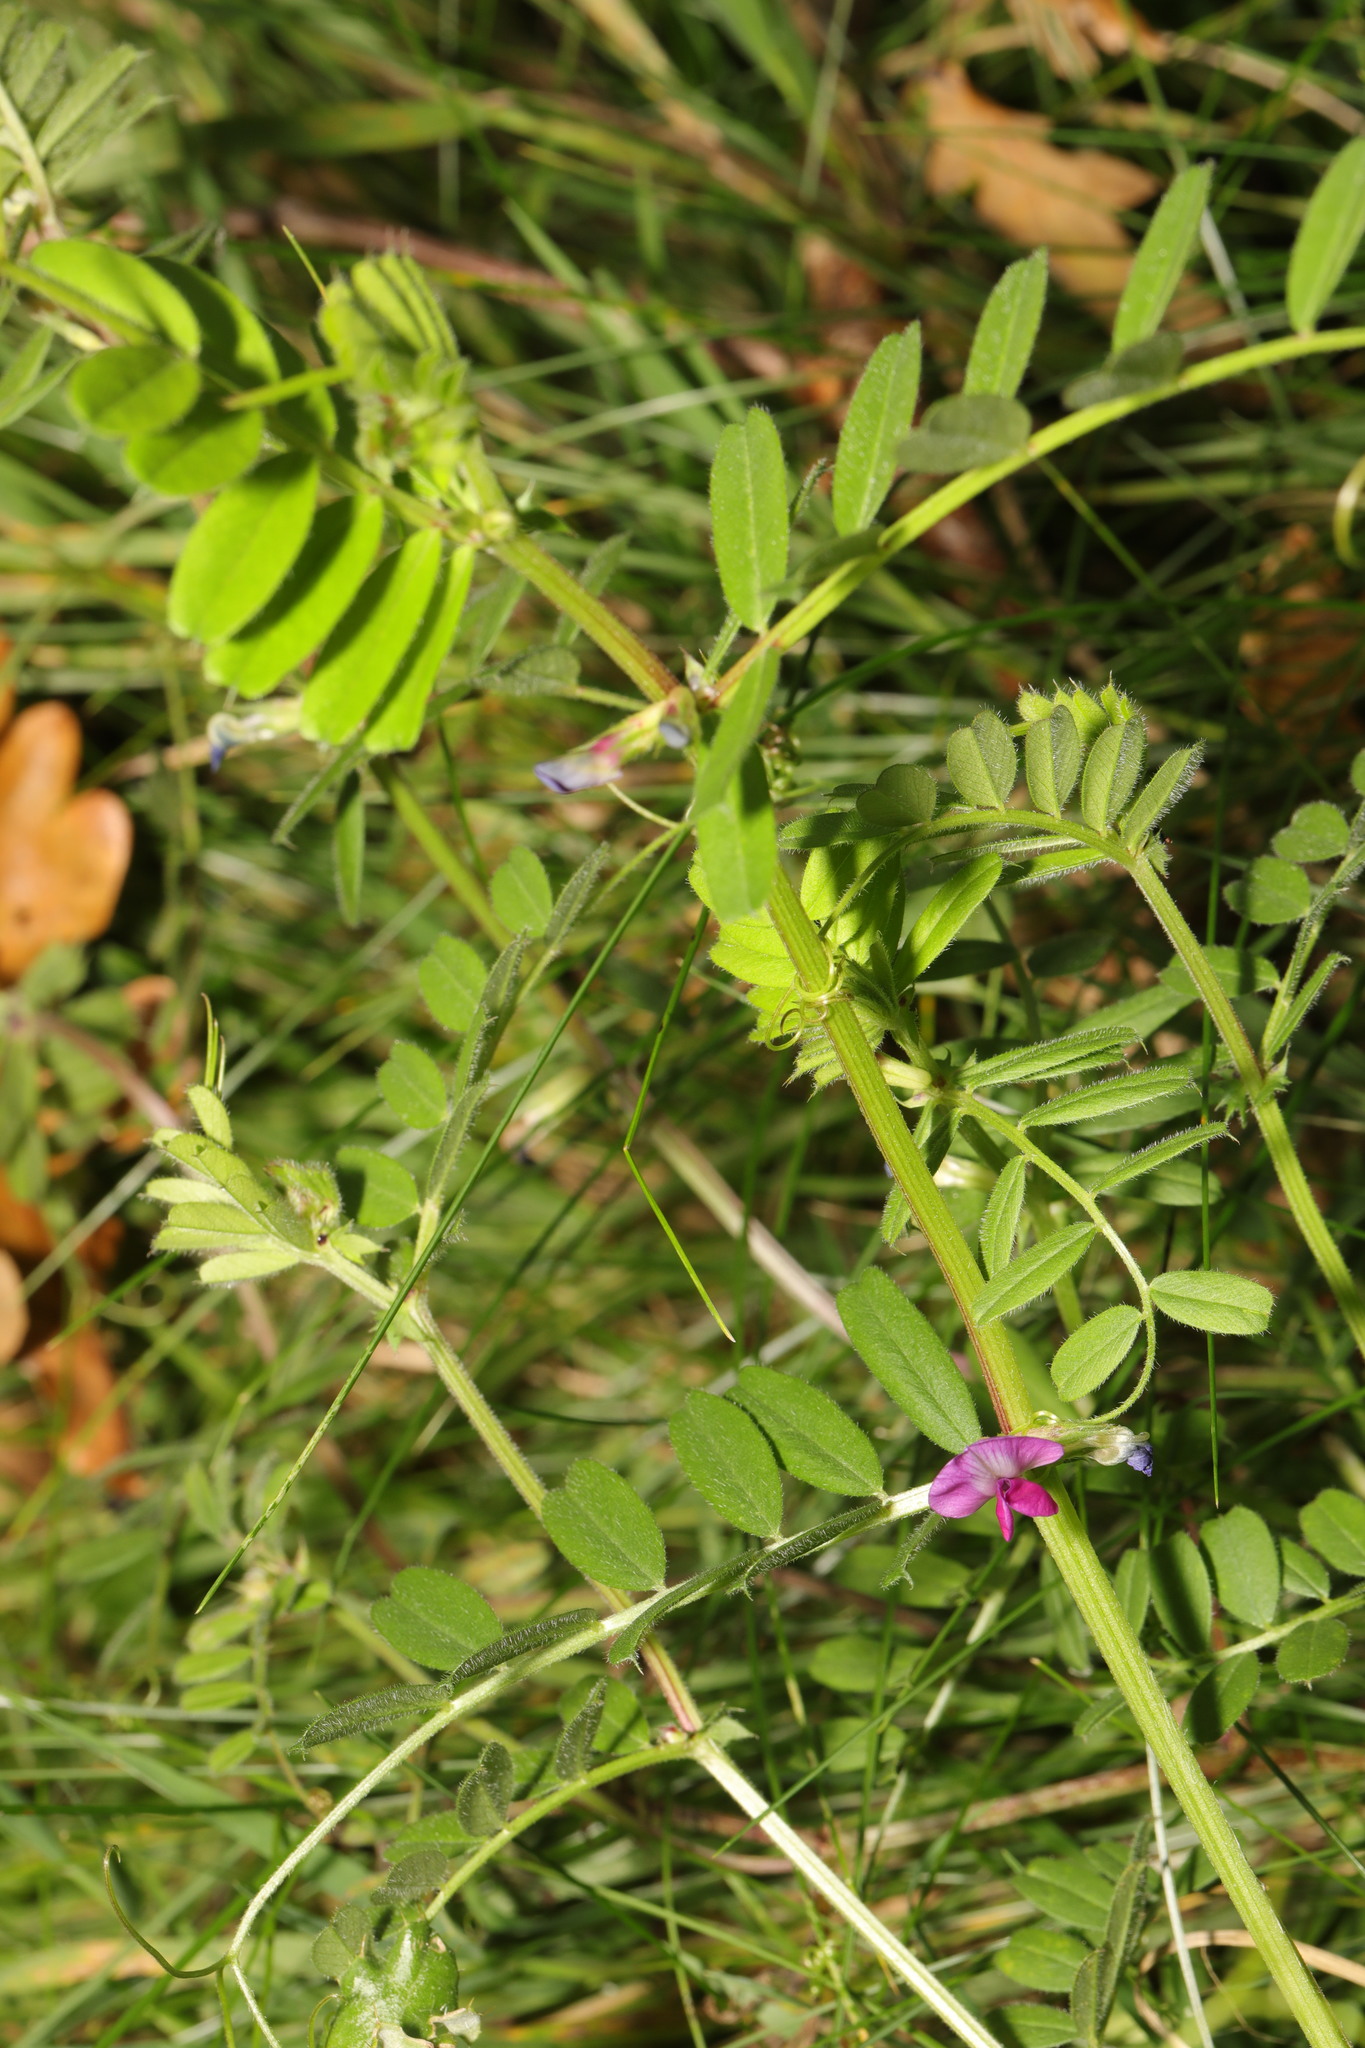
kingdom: Plantae
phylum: Tracheophyta
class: Magnoliopsida
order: Fabales
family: Fabaceae
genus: Vicia
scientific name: Vicia sativa
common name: Garden vetch
